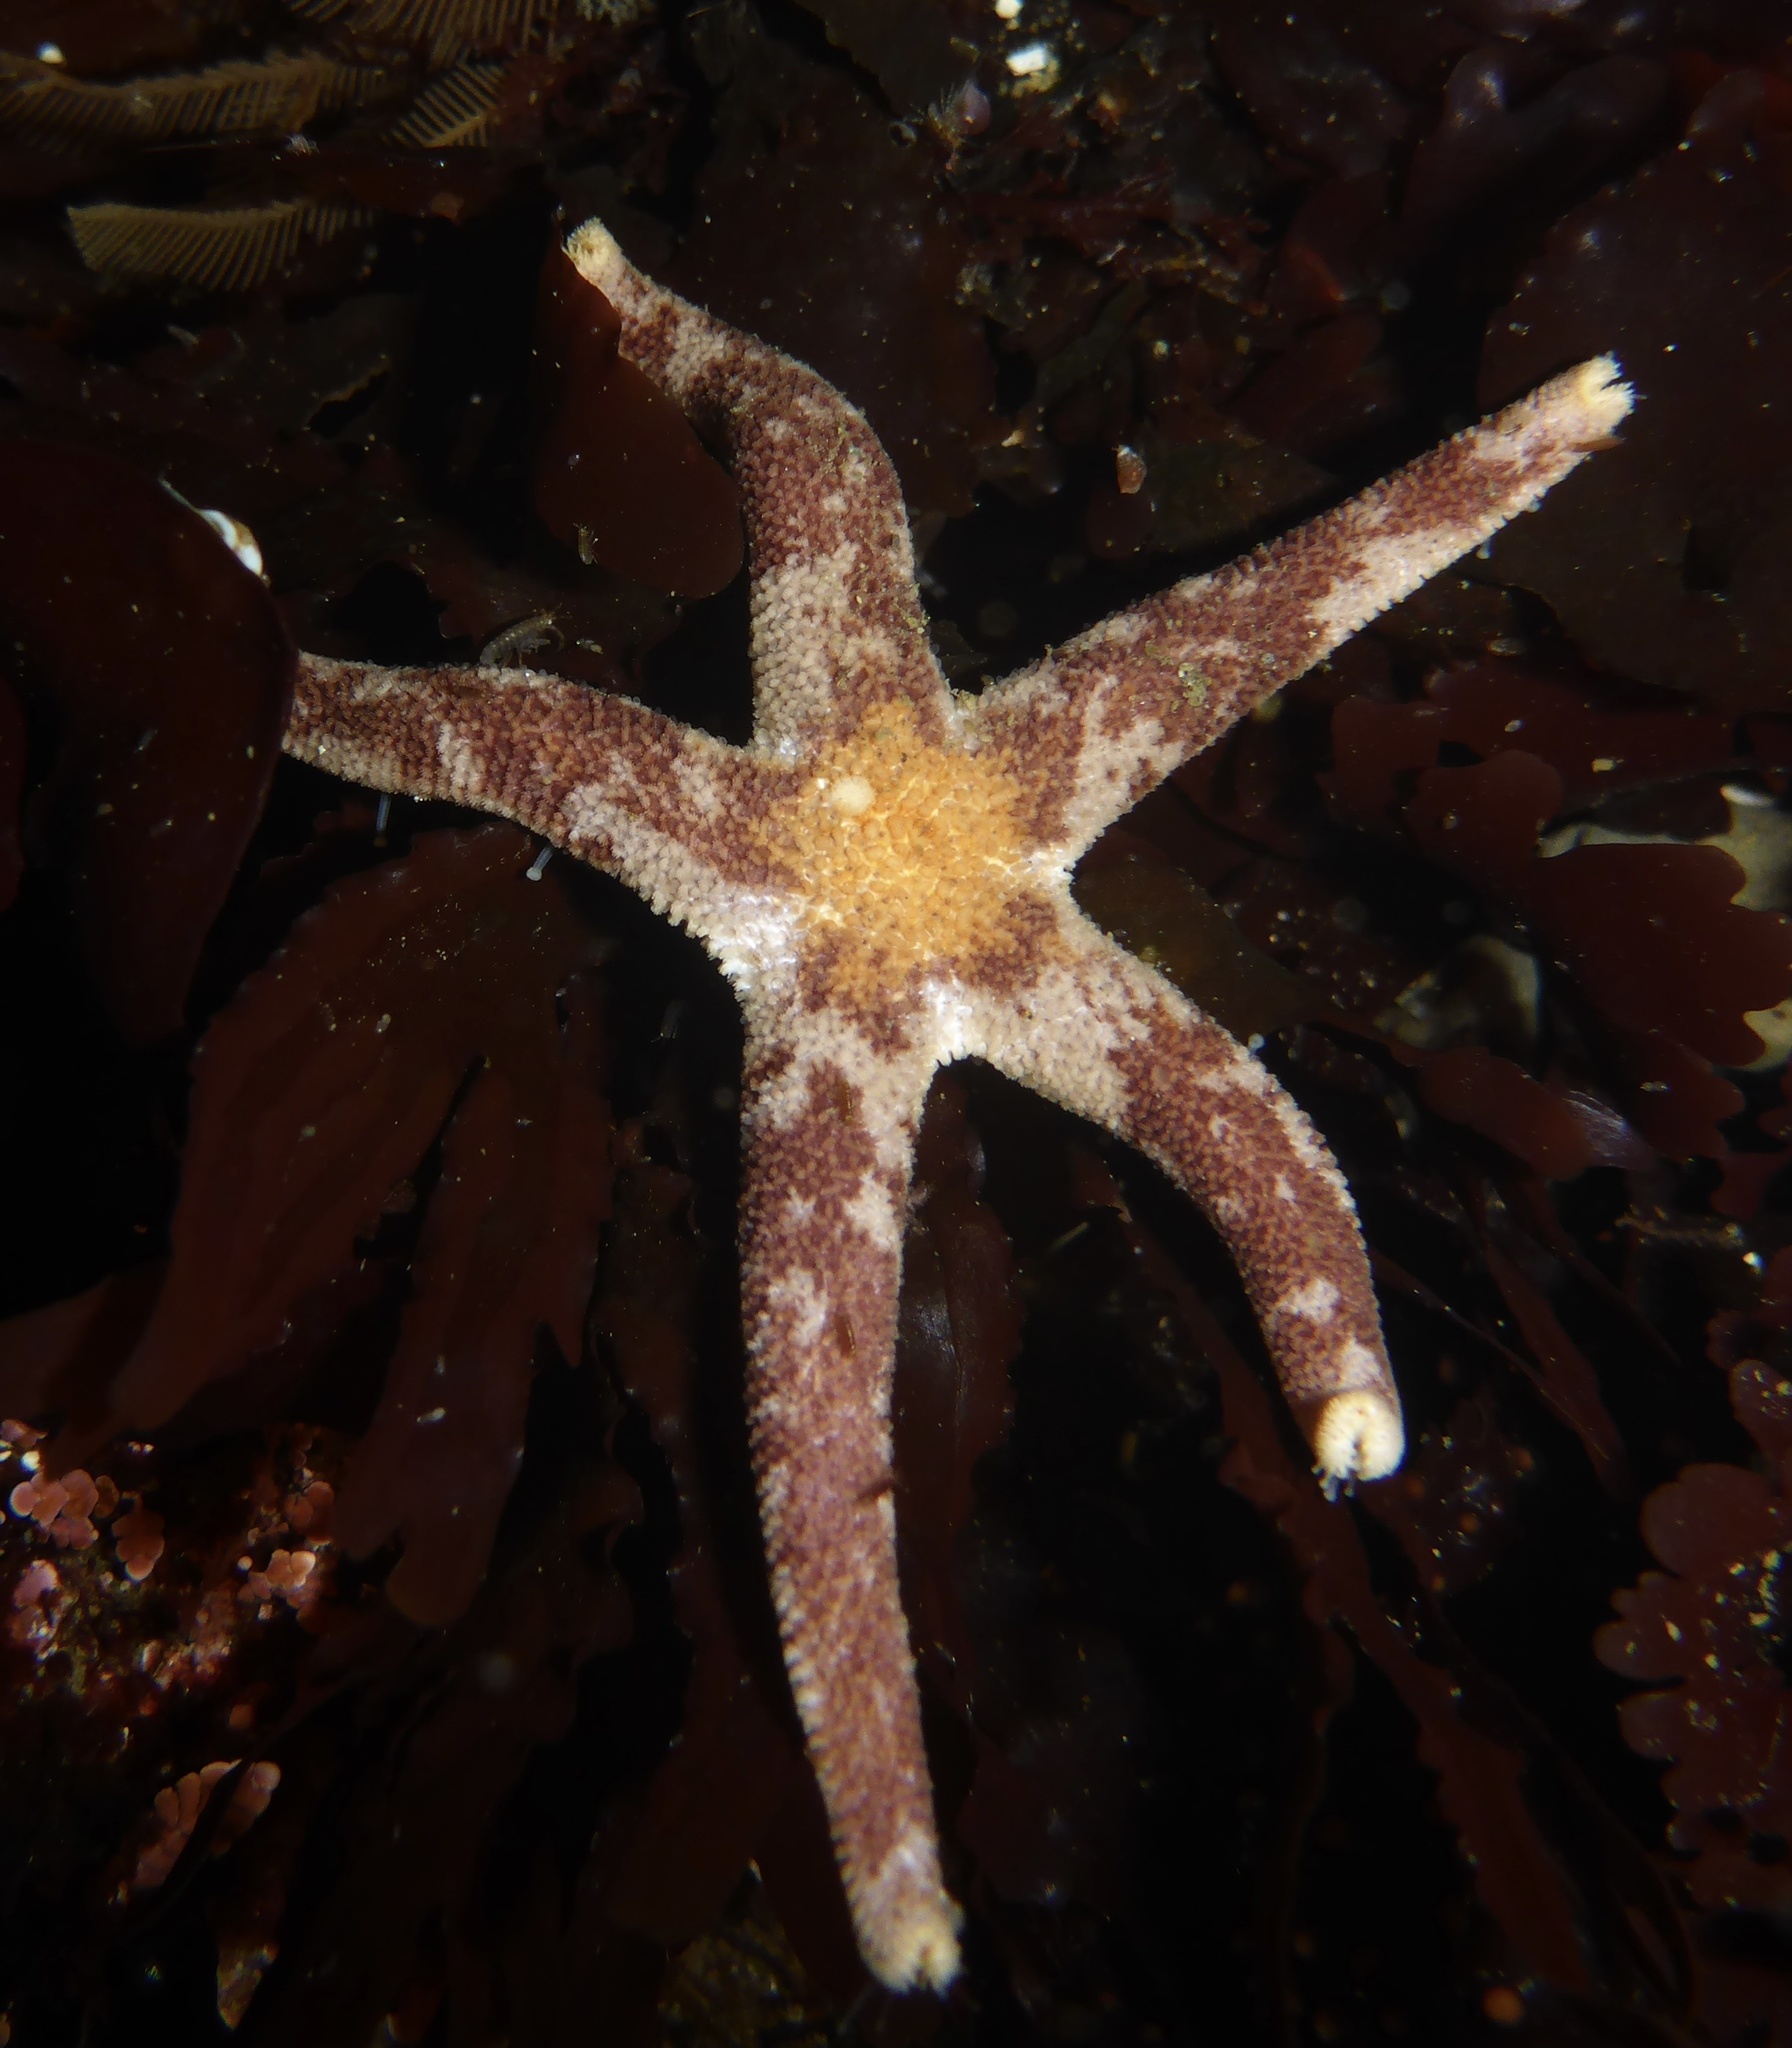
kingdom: Animalia
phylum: Echinodermata
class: Asteroidea
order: Spinulosida
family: Echinasteridae
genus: Henricia
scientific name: Henricia pumila
